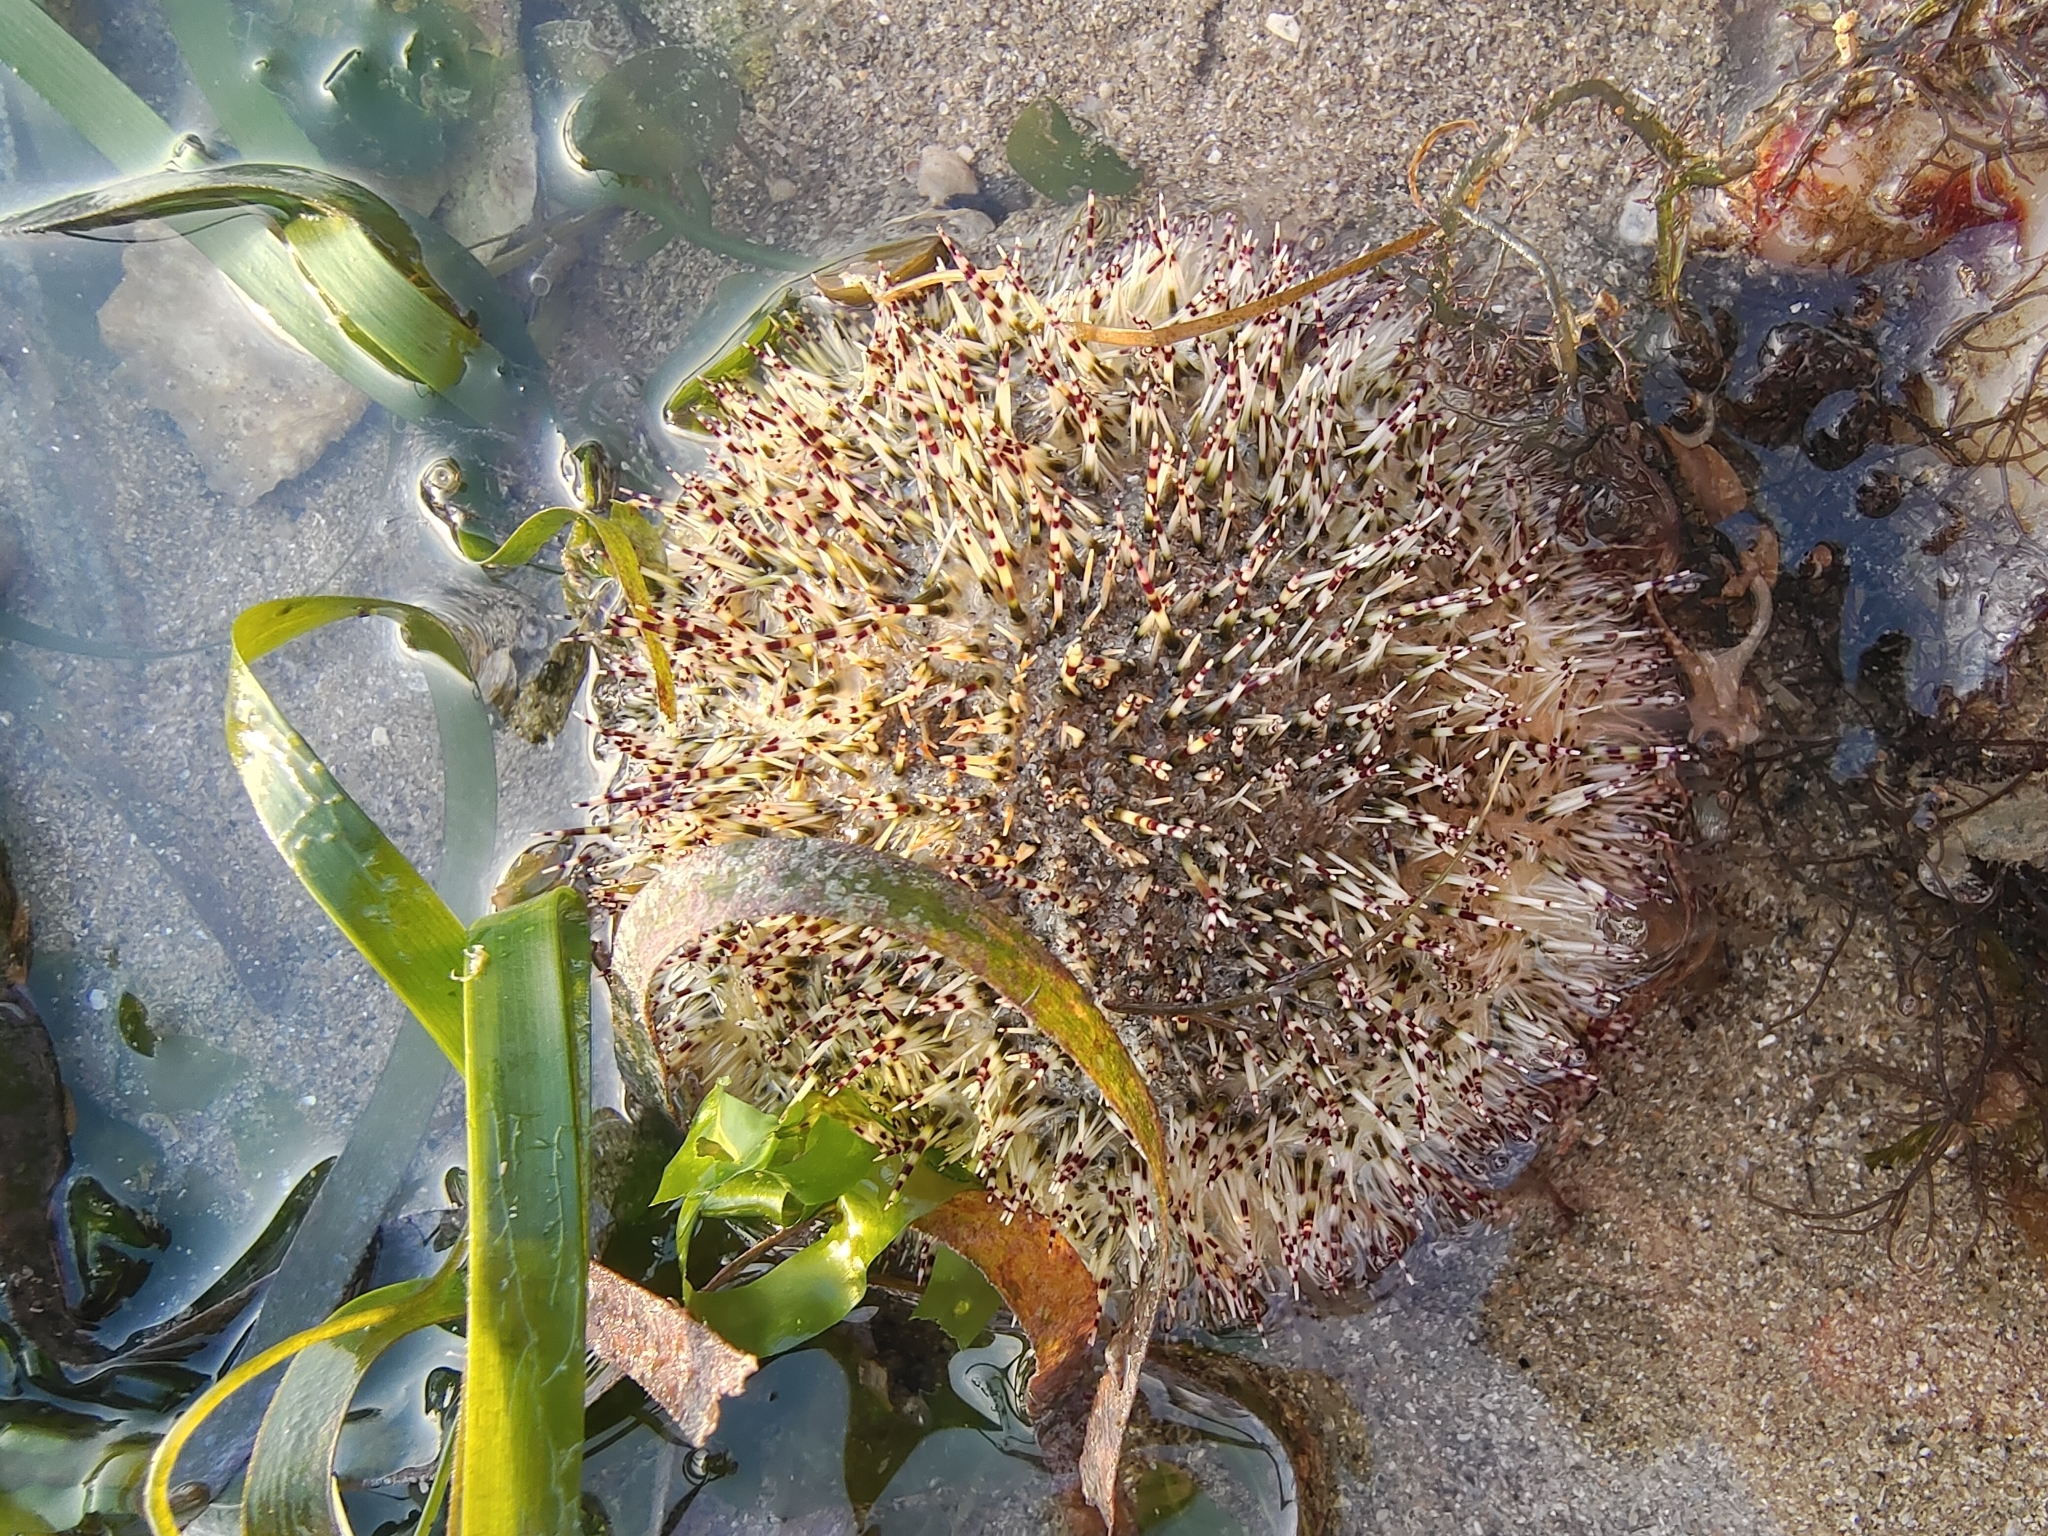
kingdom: Animalia
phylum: Echinodermata
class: Echinoidea
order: Camarodonta
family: Temnopleuridae
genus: Salmacis
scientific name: Salmacis sphaeroides
